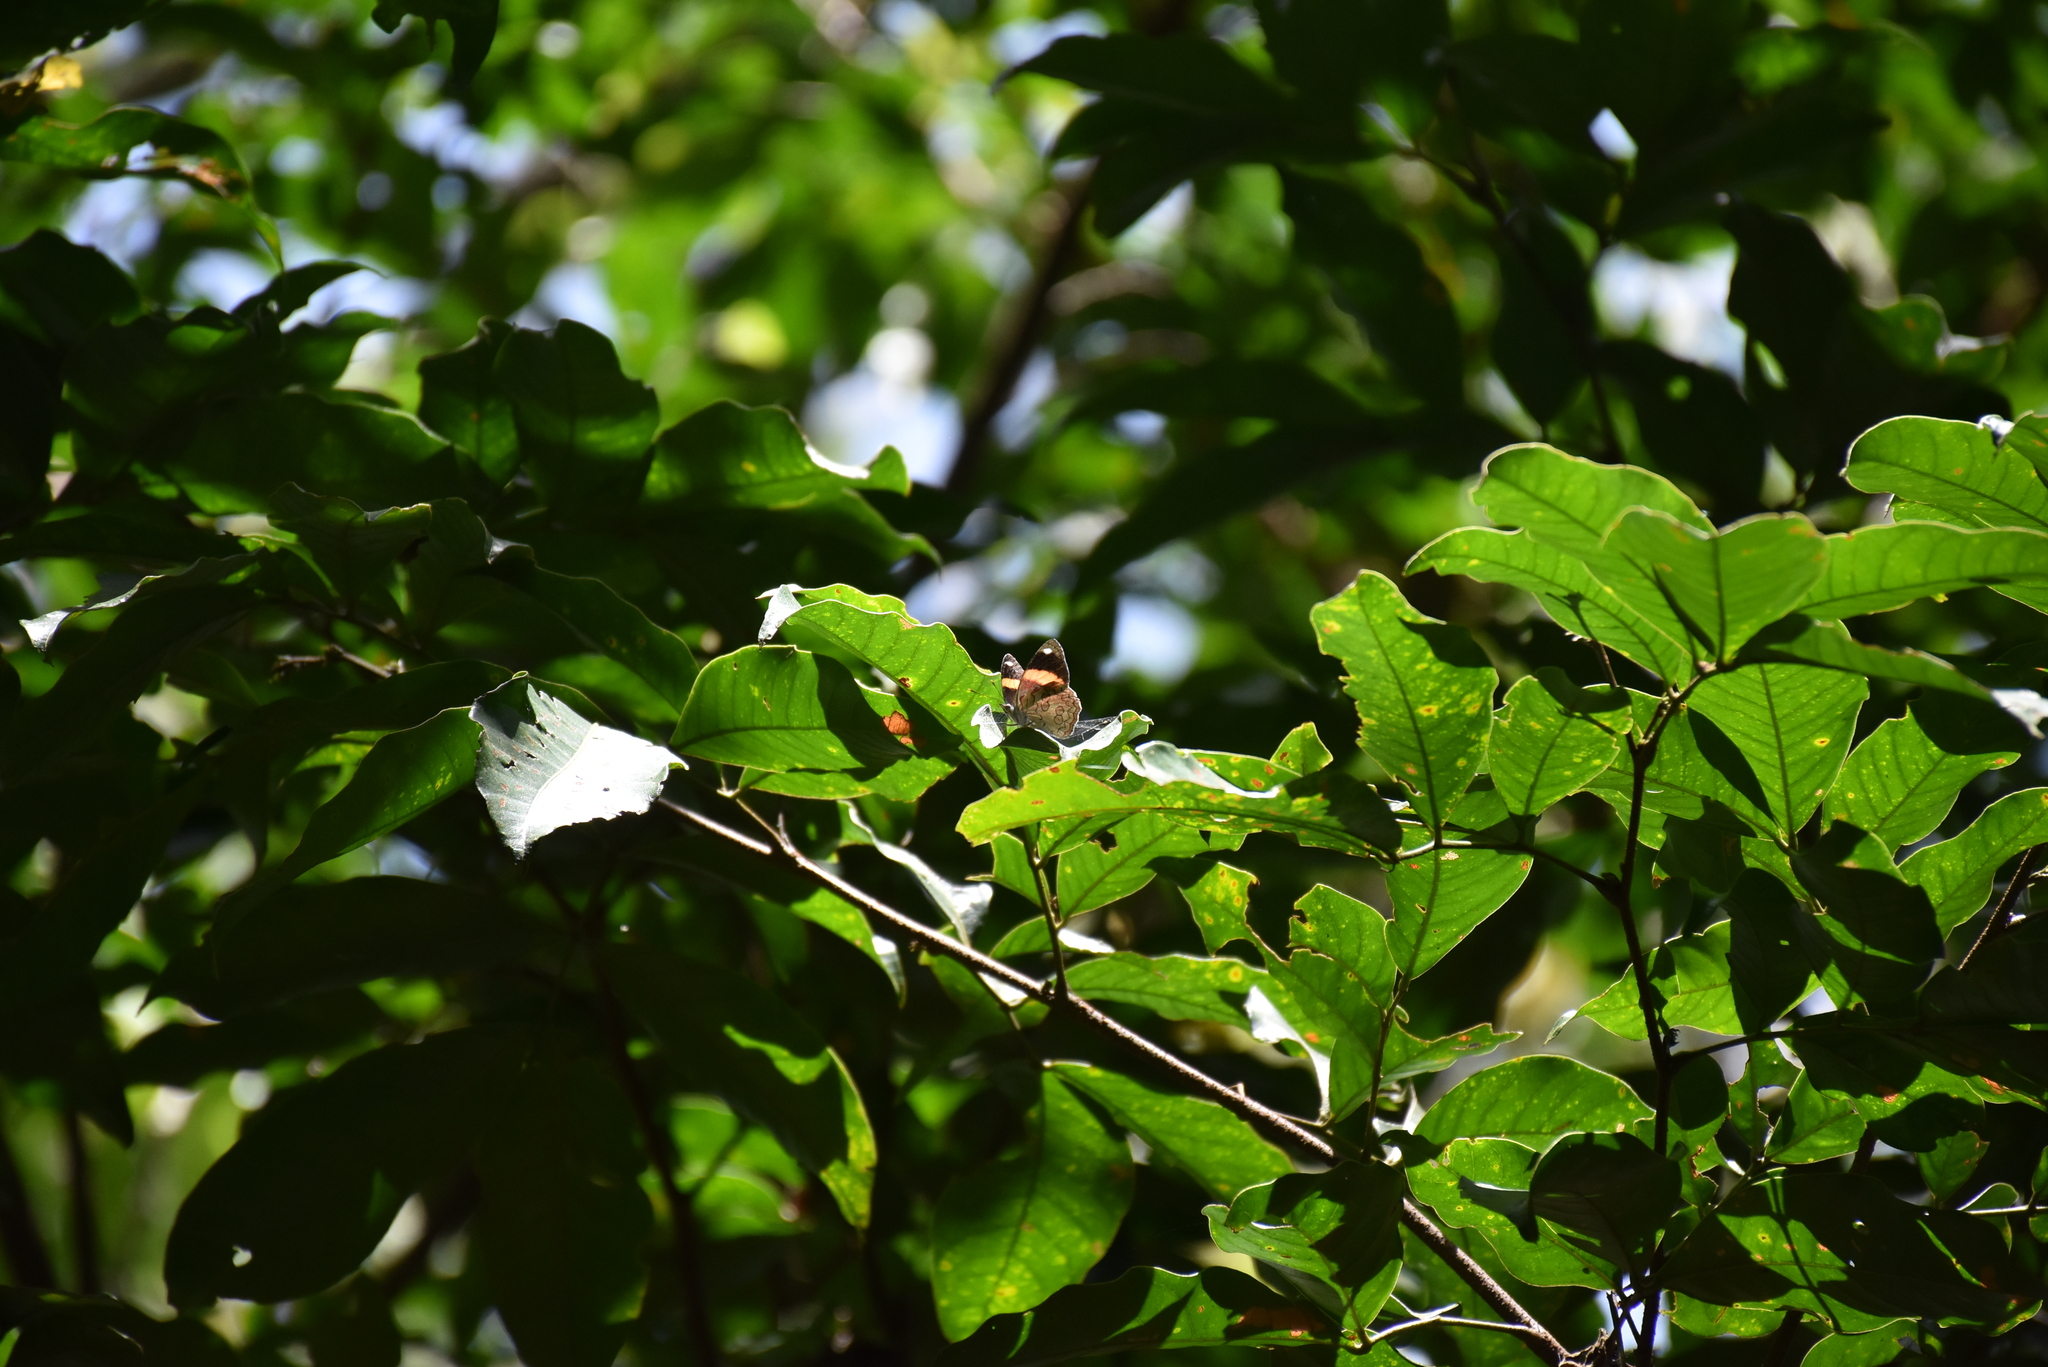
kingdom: Animalia
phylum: Arthropoda
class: Insecta
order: Lepidoptera
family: Nymphalidae
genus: Diaethria
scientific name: Diaethria pandama
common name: Orange-striped eighty-eight
